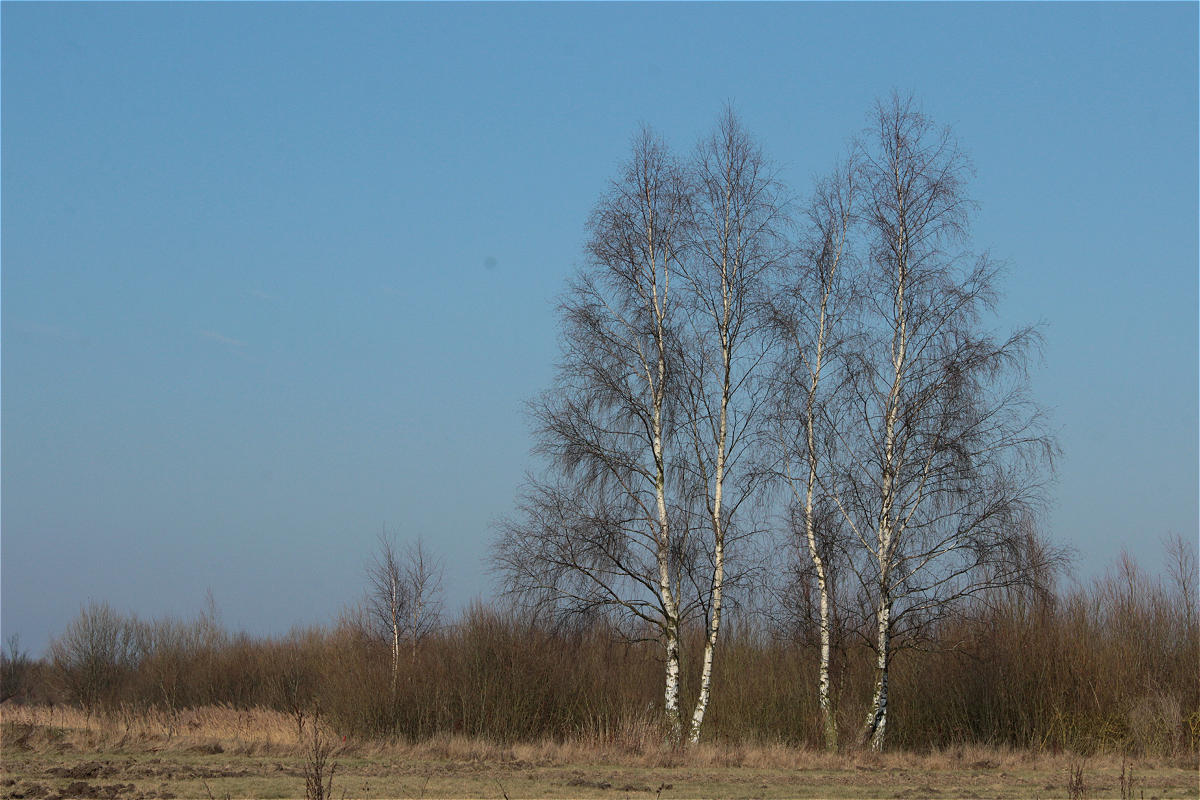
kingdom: Plantae
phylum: Tracheophyta
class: Magnoliopsida
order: Fagales
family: Betulaceae
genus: Betula
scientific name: Betula pendula
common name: Silver birch
